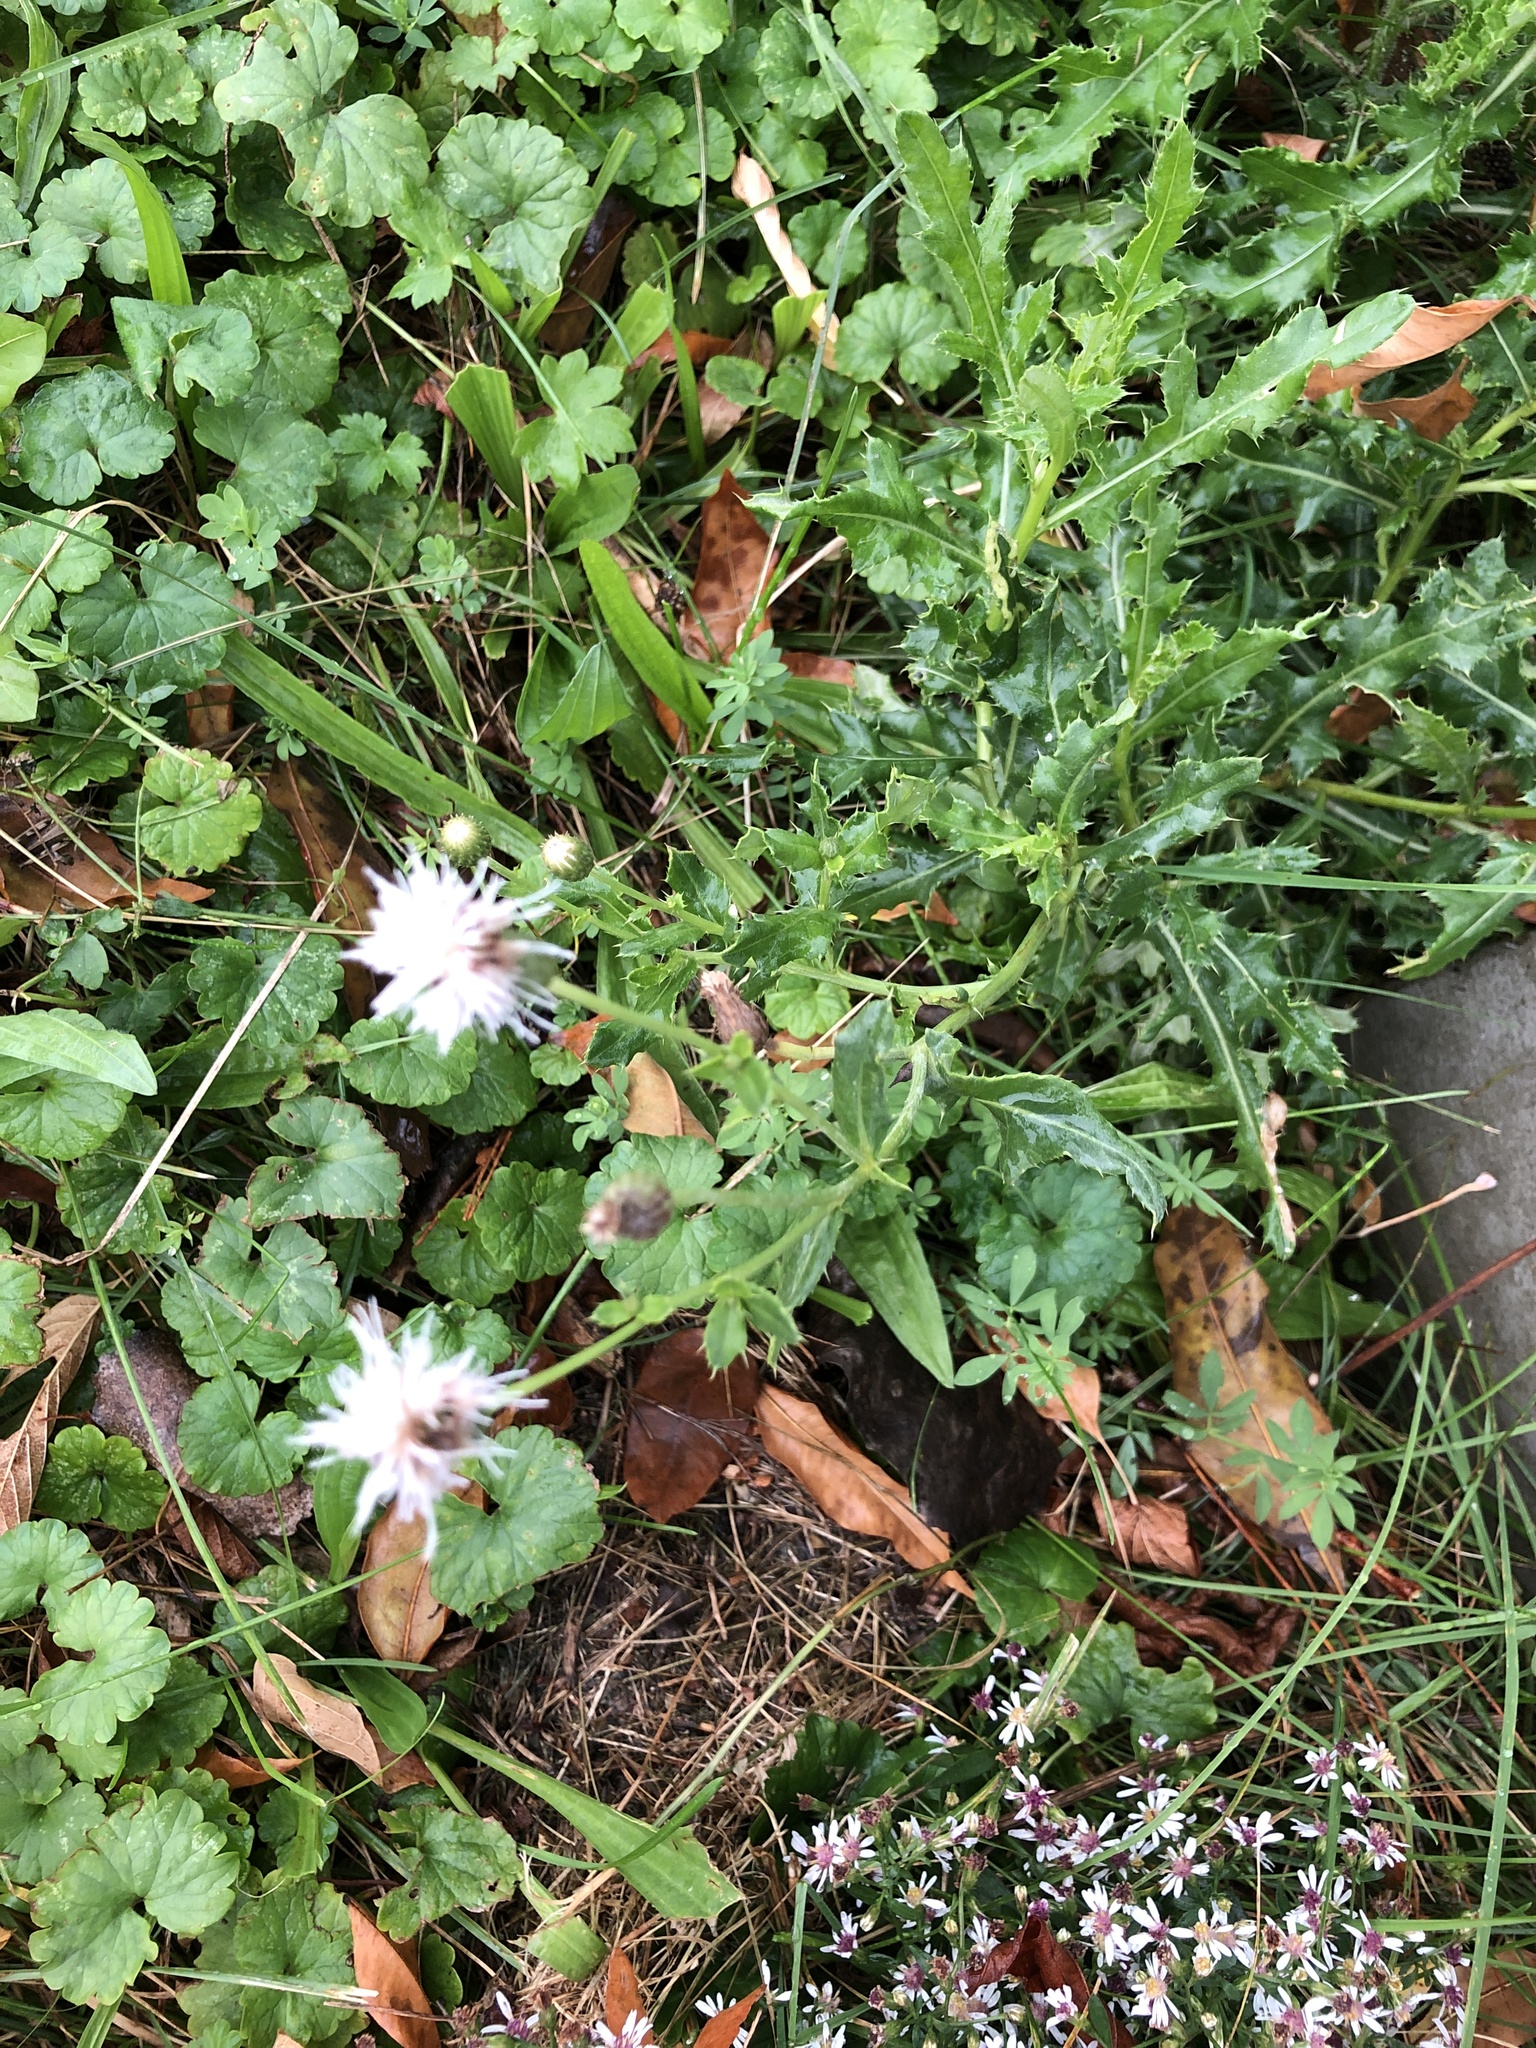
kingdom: Plantae
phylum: Tracheophyta
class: Magnoliopsida
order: Asterales
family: Asteraceae
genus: Cirsium
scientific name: Cirsium arvense
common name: Creeping thistle
